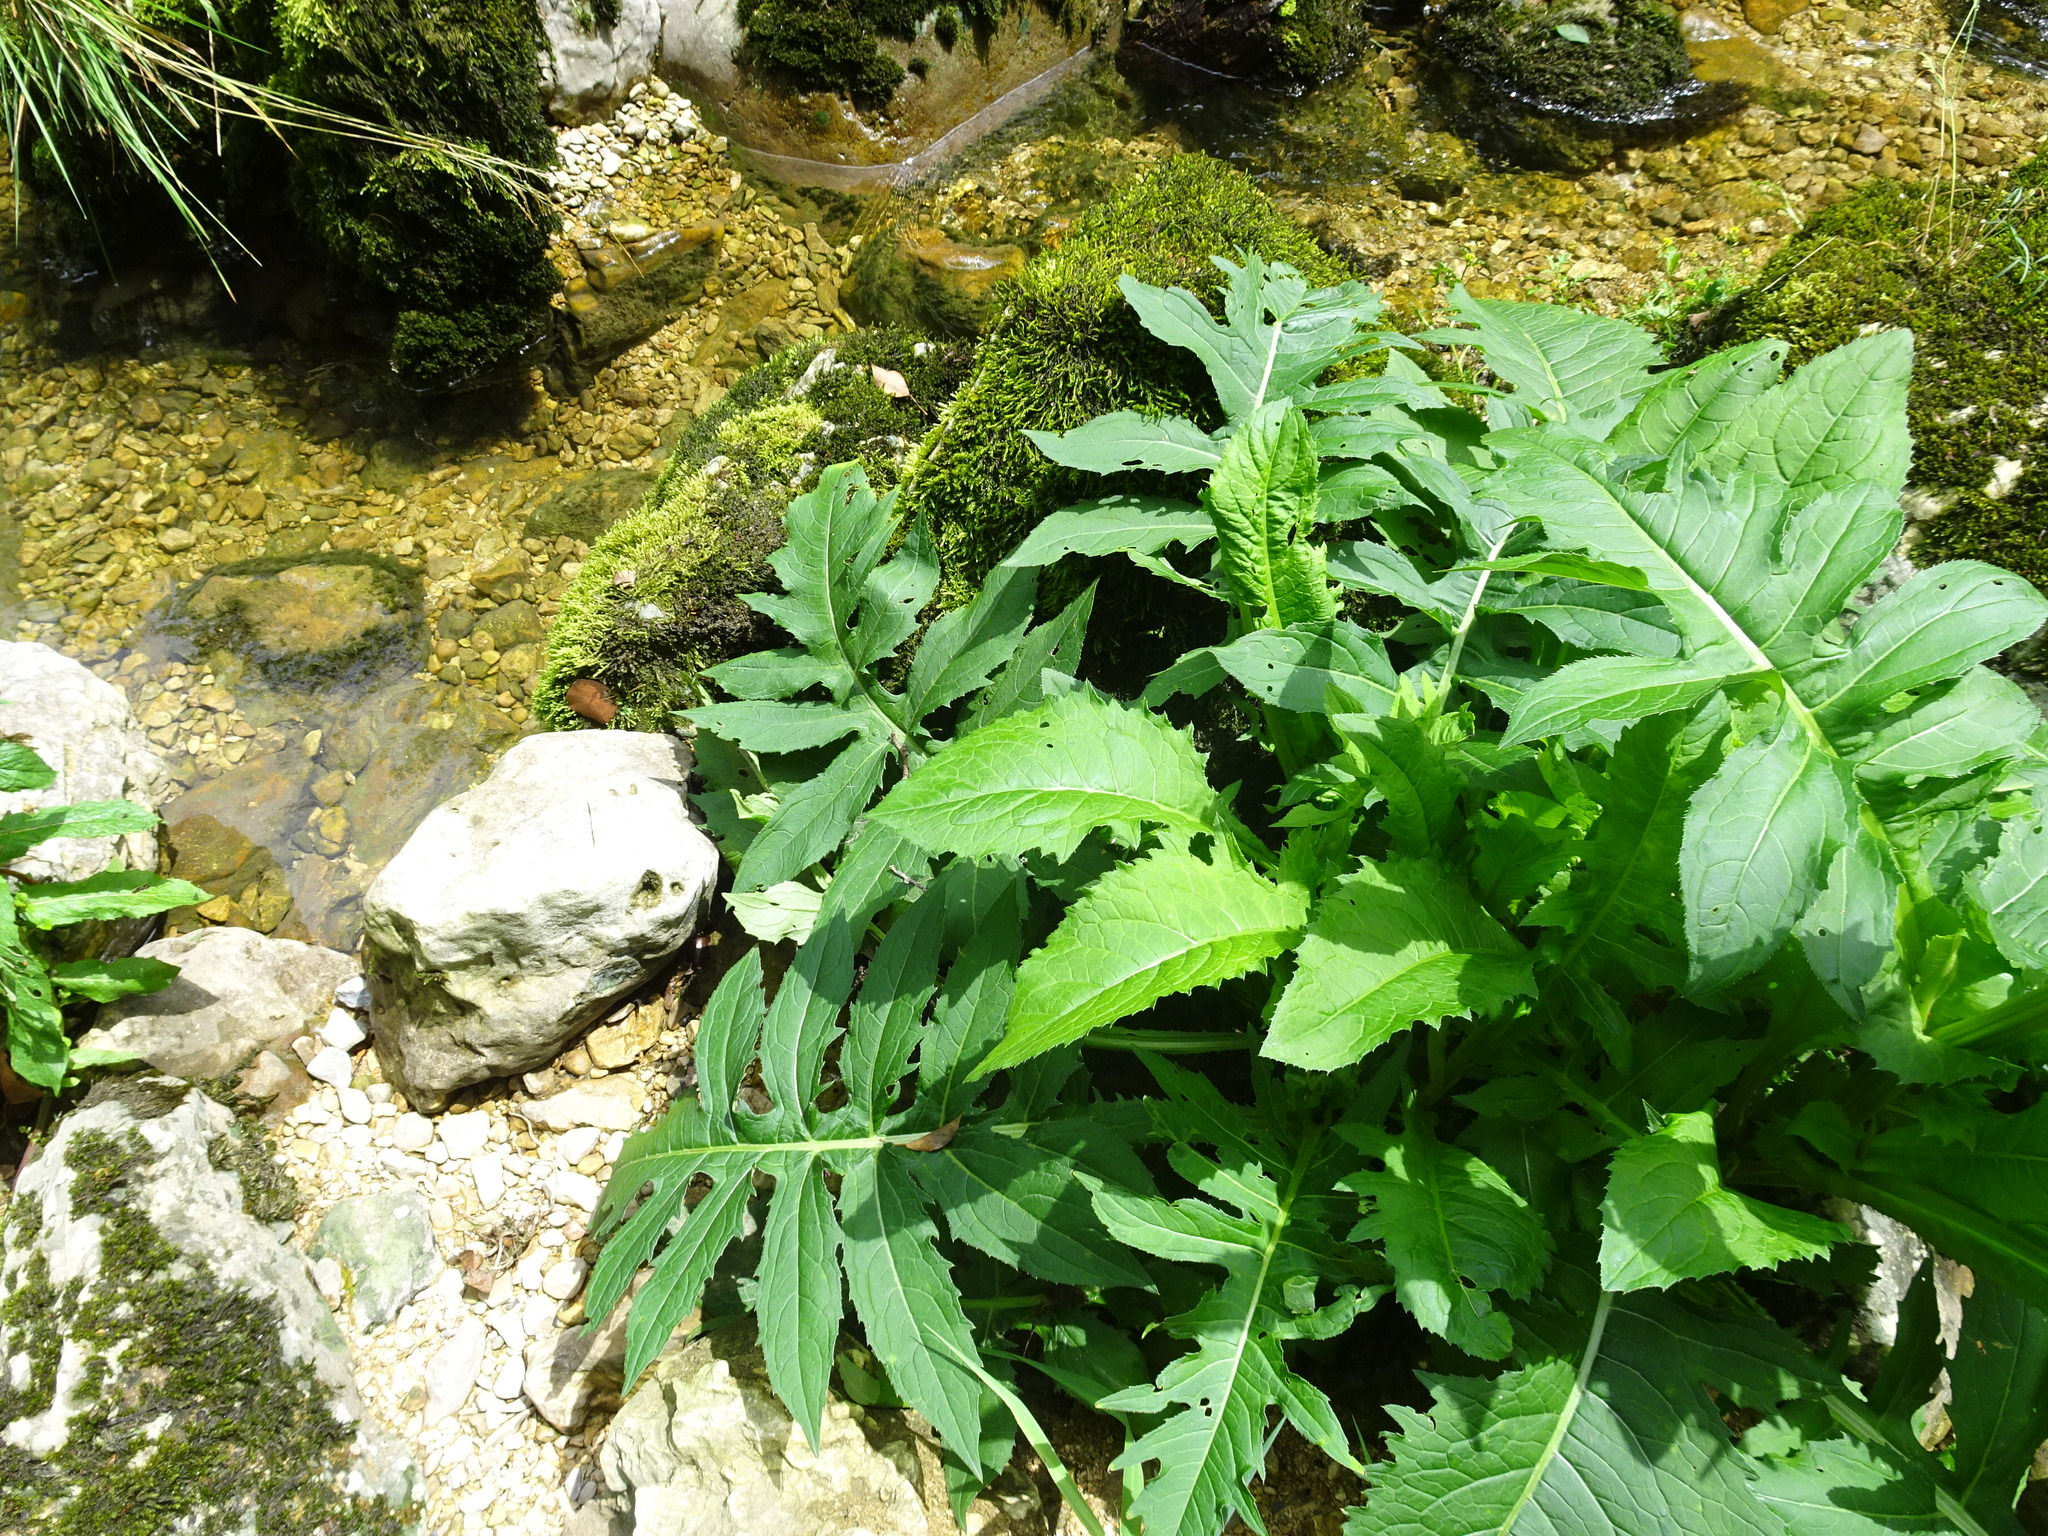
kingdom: Plantae
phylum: Tracheophyta
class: Magnoliopsida
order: Asterales
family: Asteraceae
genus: Cirsium
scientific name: Cirsium oleraceum
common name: Cabbage thistle
